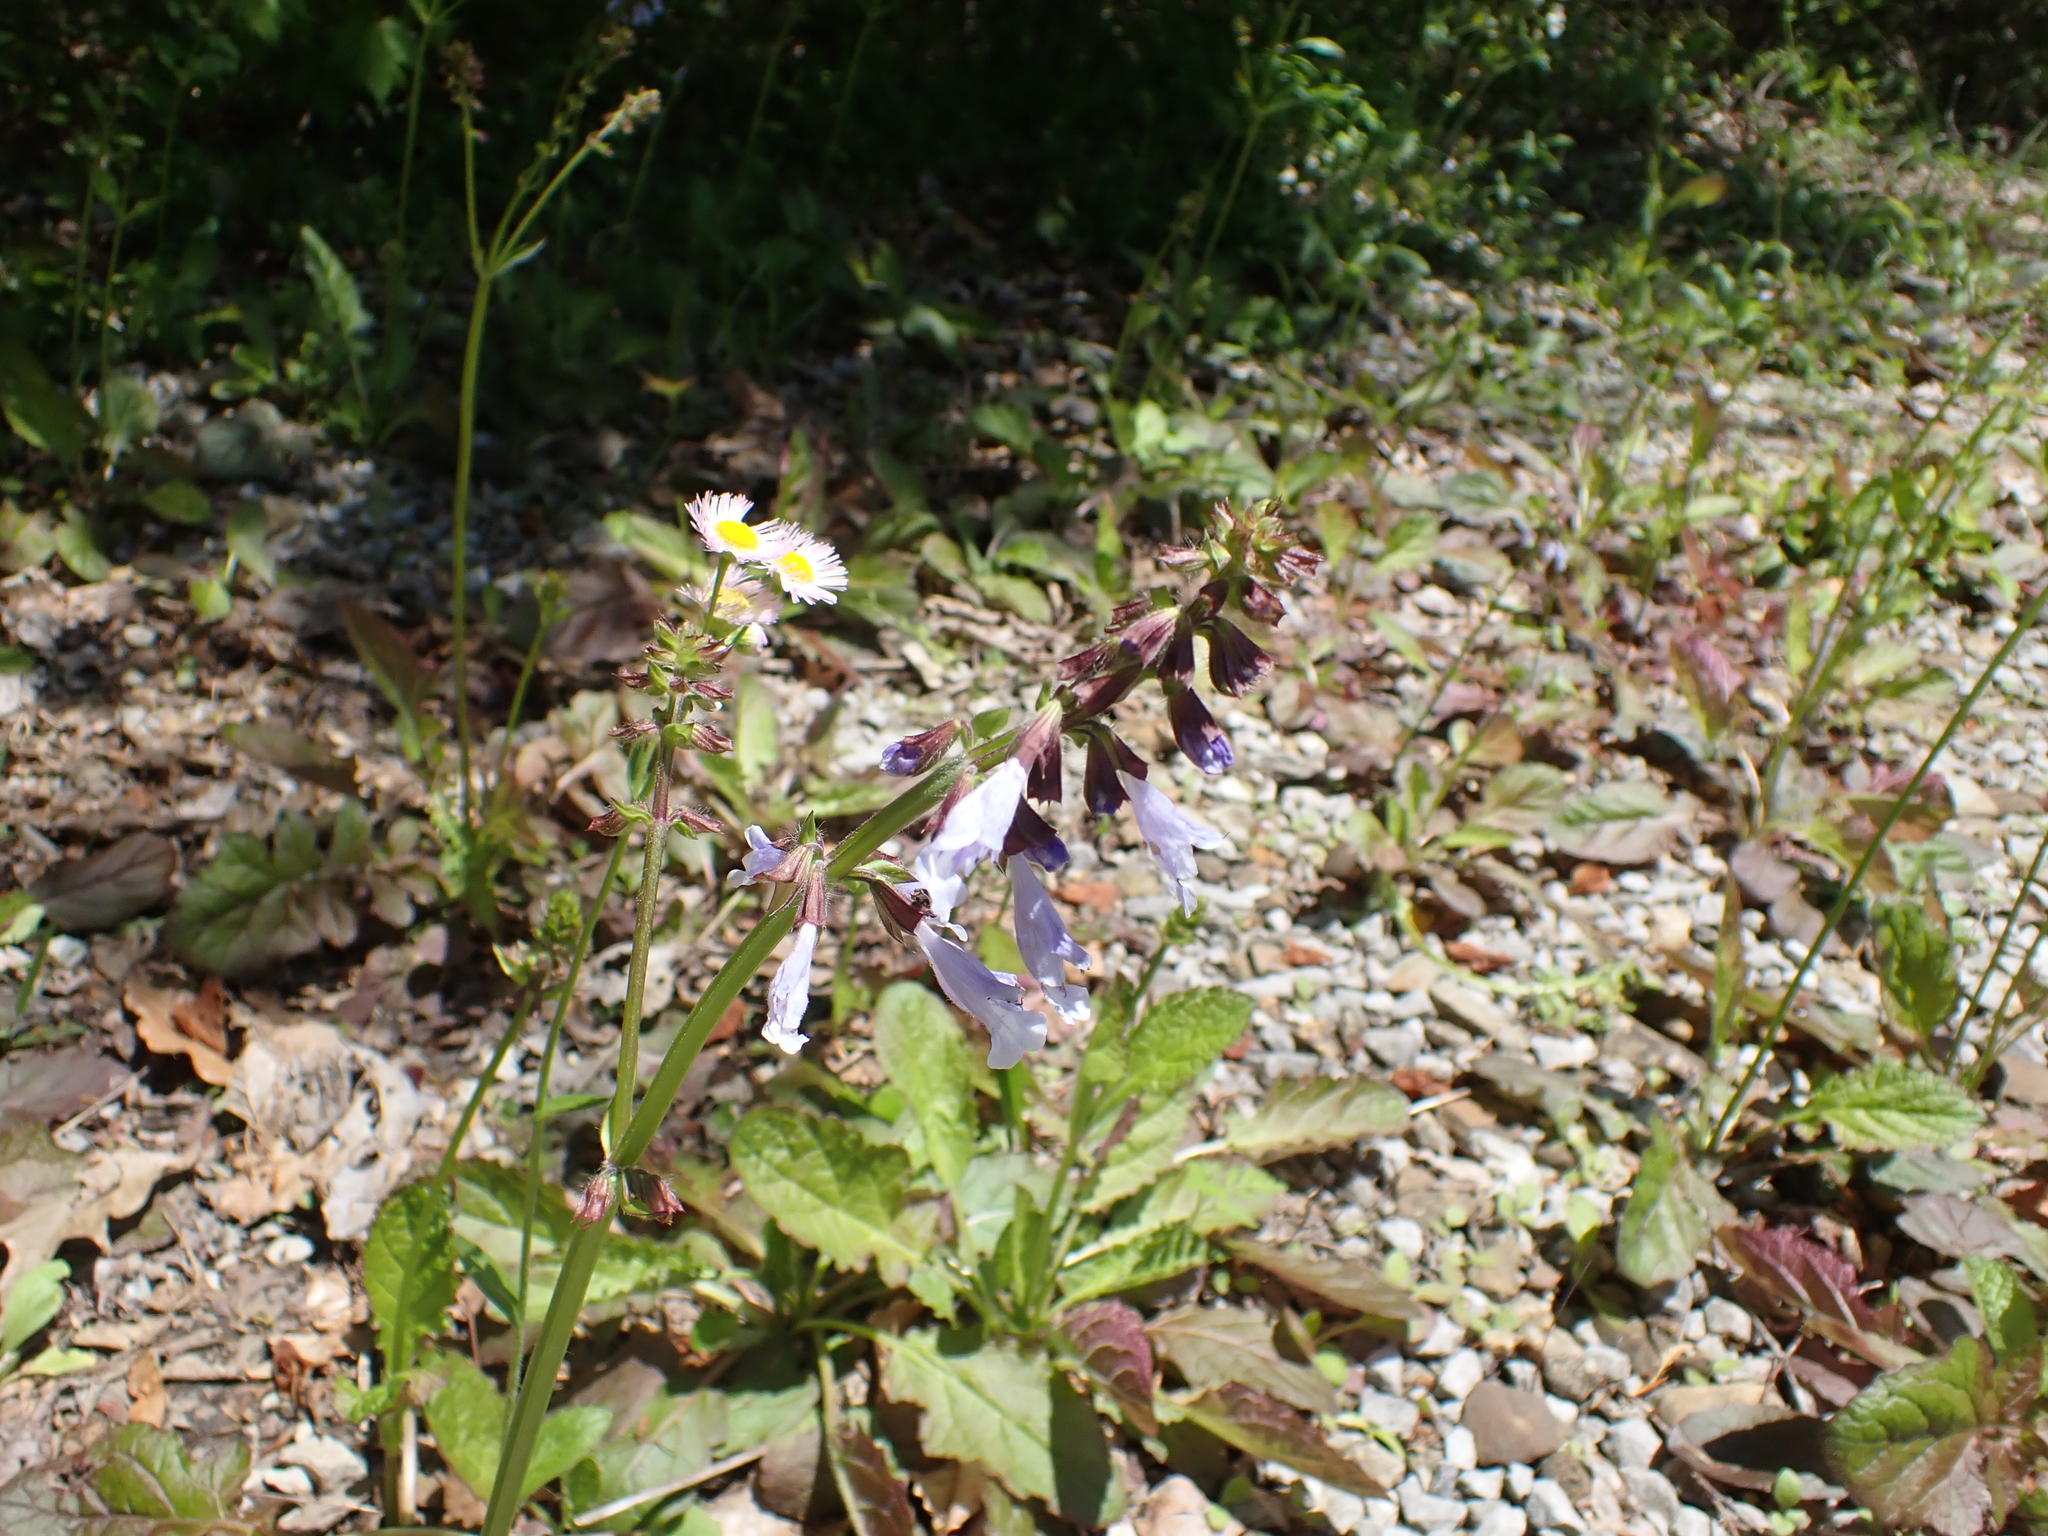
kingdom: Plantae
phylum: Tracheophyta
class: Magnoliopsida
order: Lamiales
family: Lamiaceae
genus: Salvia
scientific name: Salvia lyrata
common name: Cancerweed
